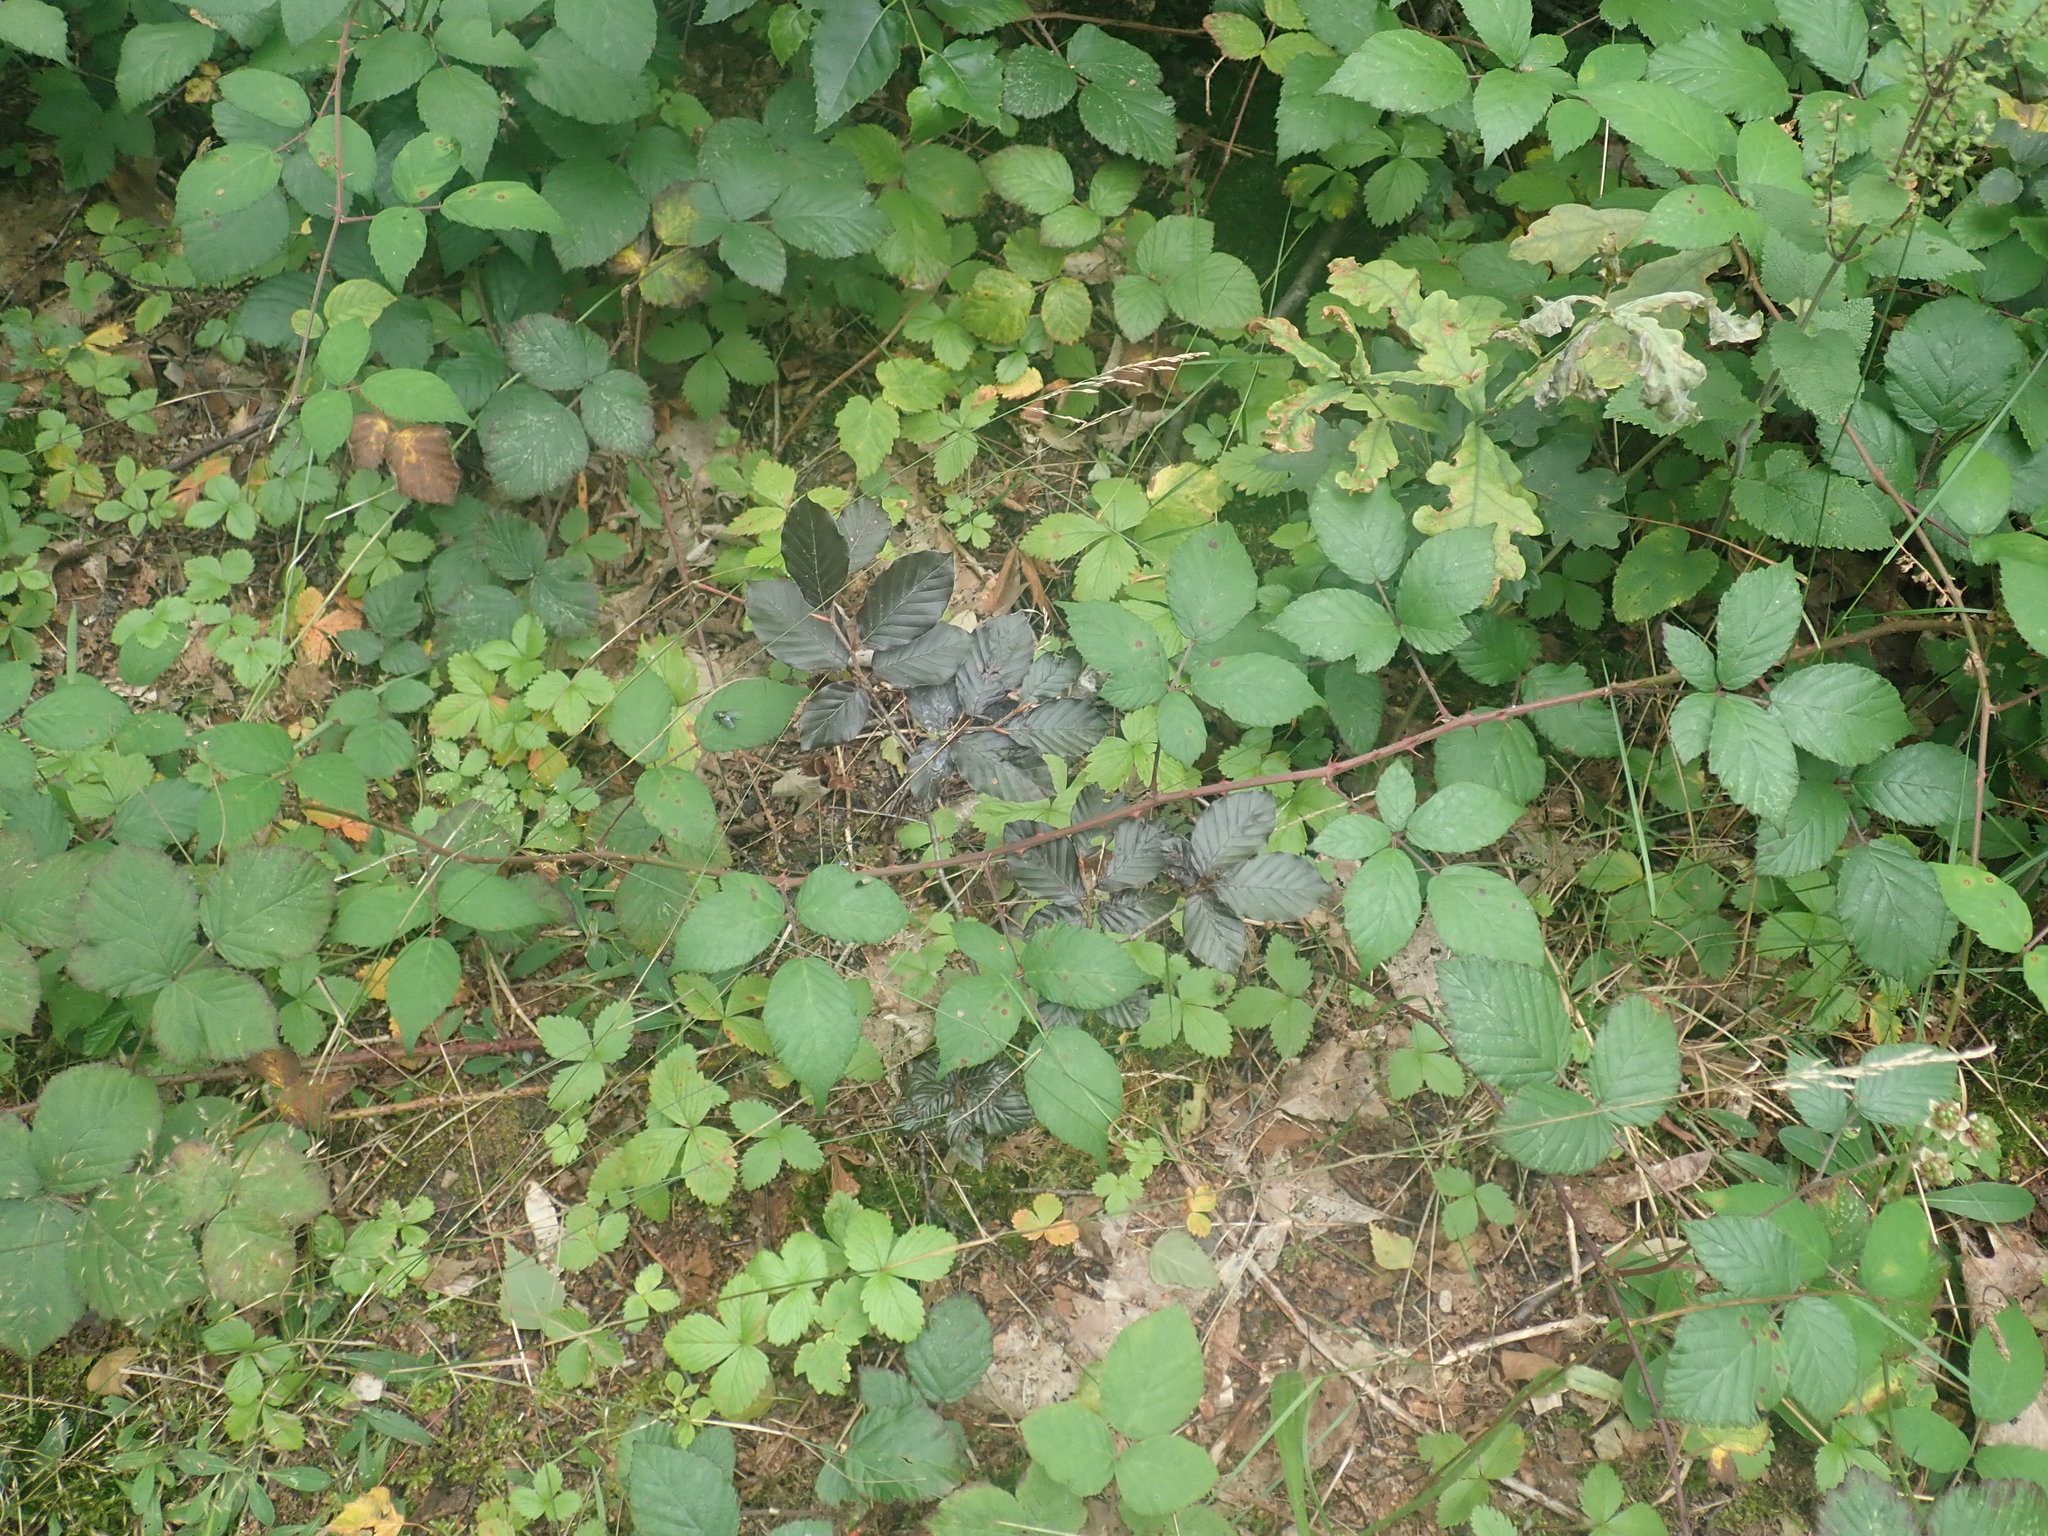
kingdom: Plantae
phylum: Tracheophyta
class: Magnoliopsida
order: Fagales
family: Fagaceae
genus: Fagus
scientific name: Fagus sylvatica
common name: Beech
